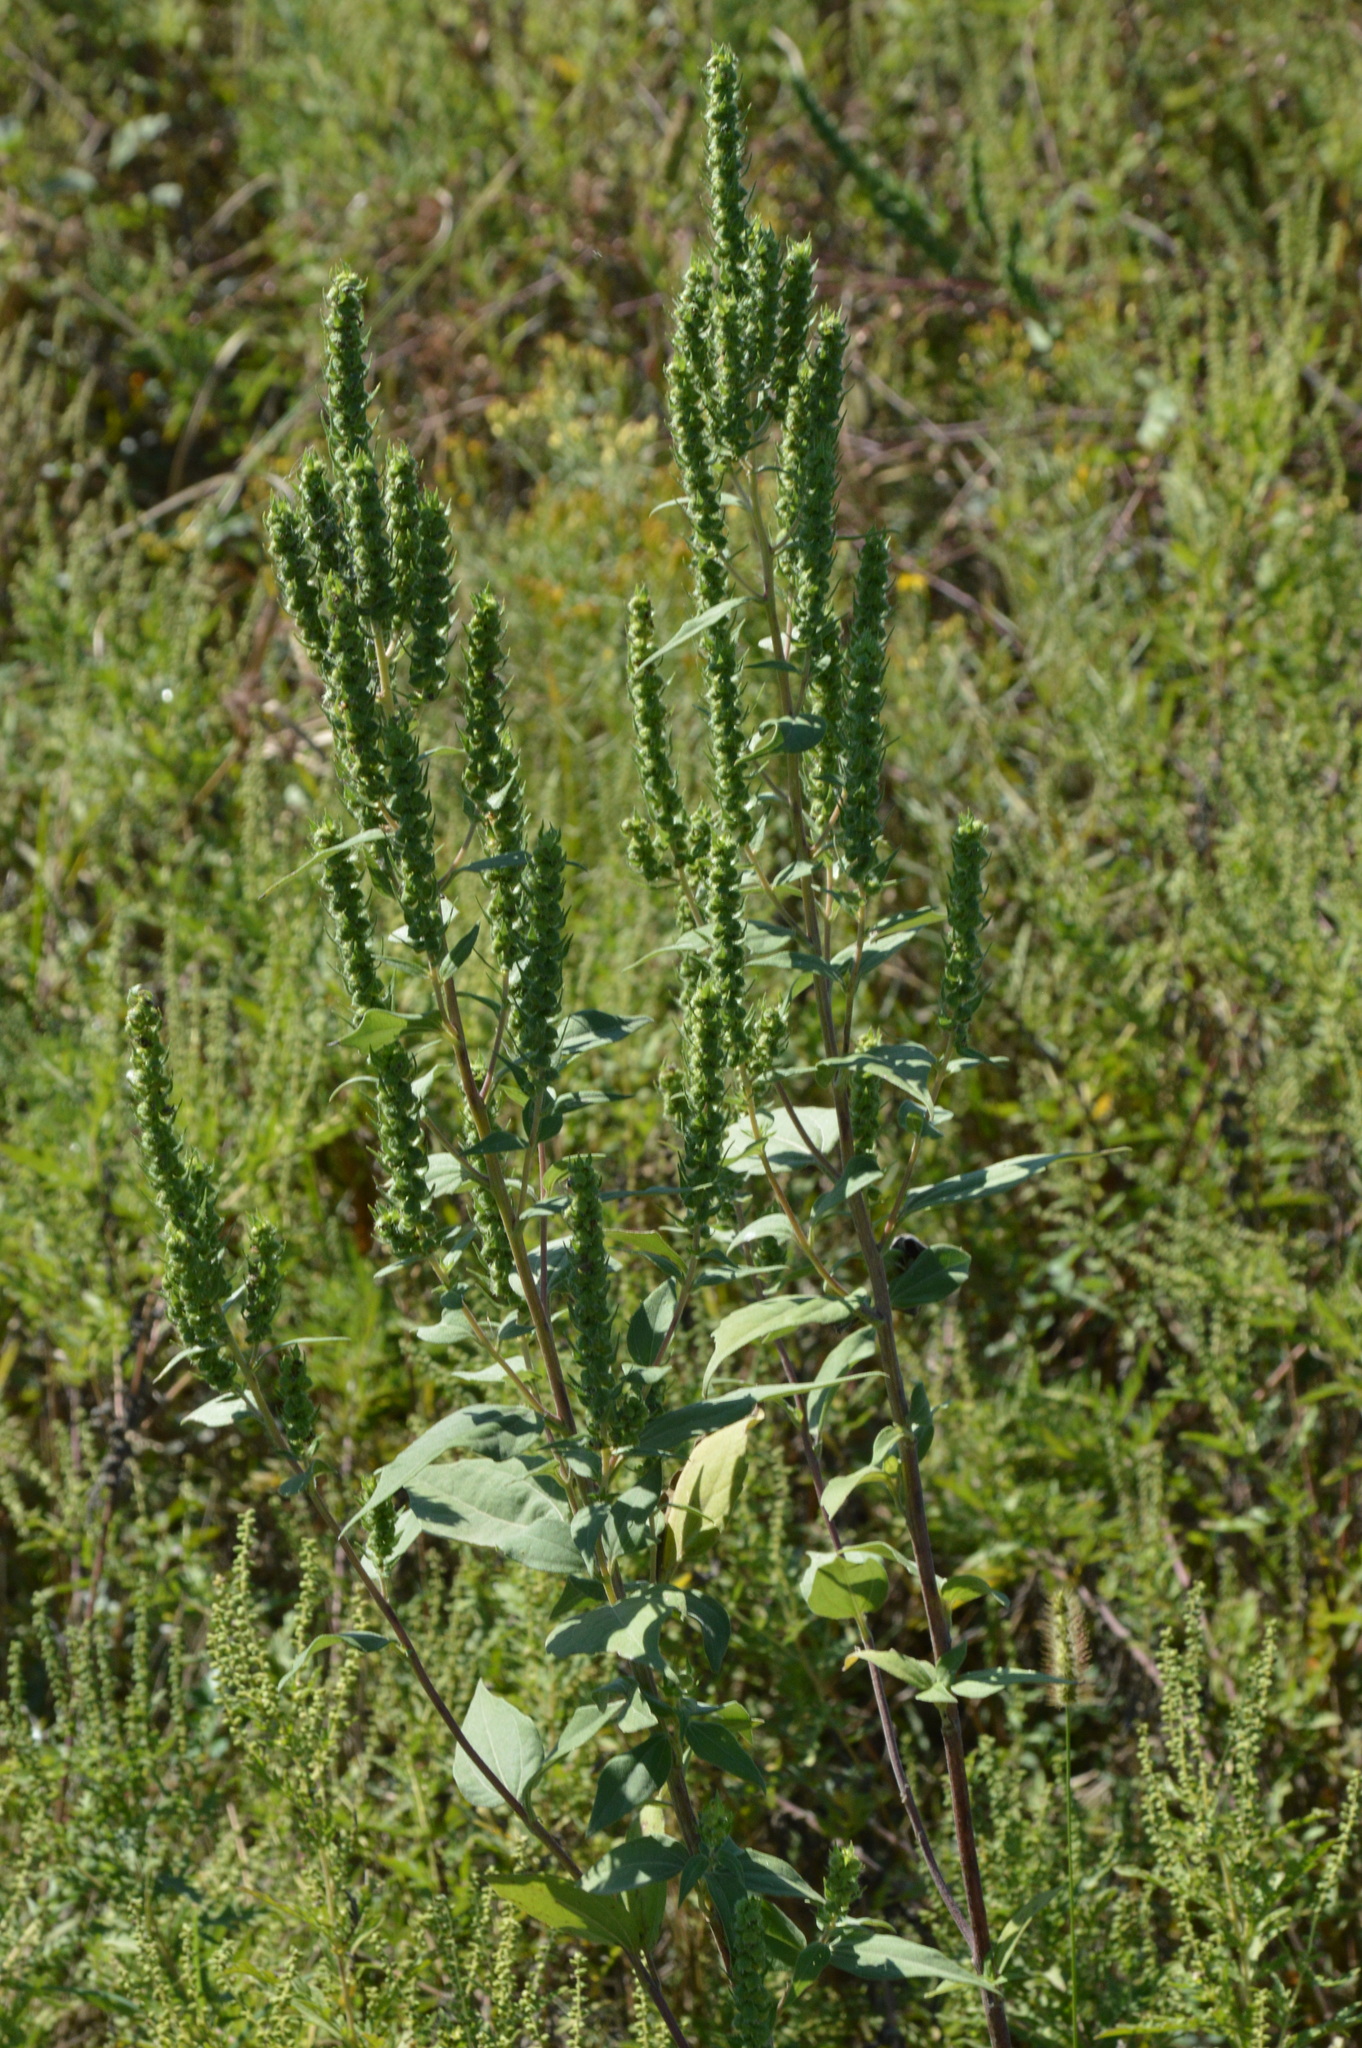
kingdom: Plantae
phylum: Tracheophyta
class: Magnoliopsida
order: Asterales
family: Asteraceae
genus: Iva
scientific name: Iva annua
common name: Marsh-elder
